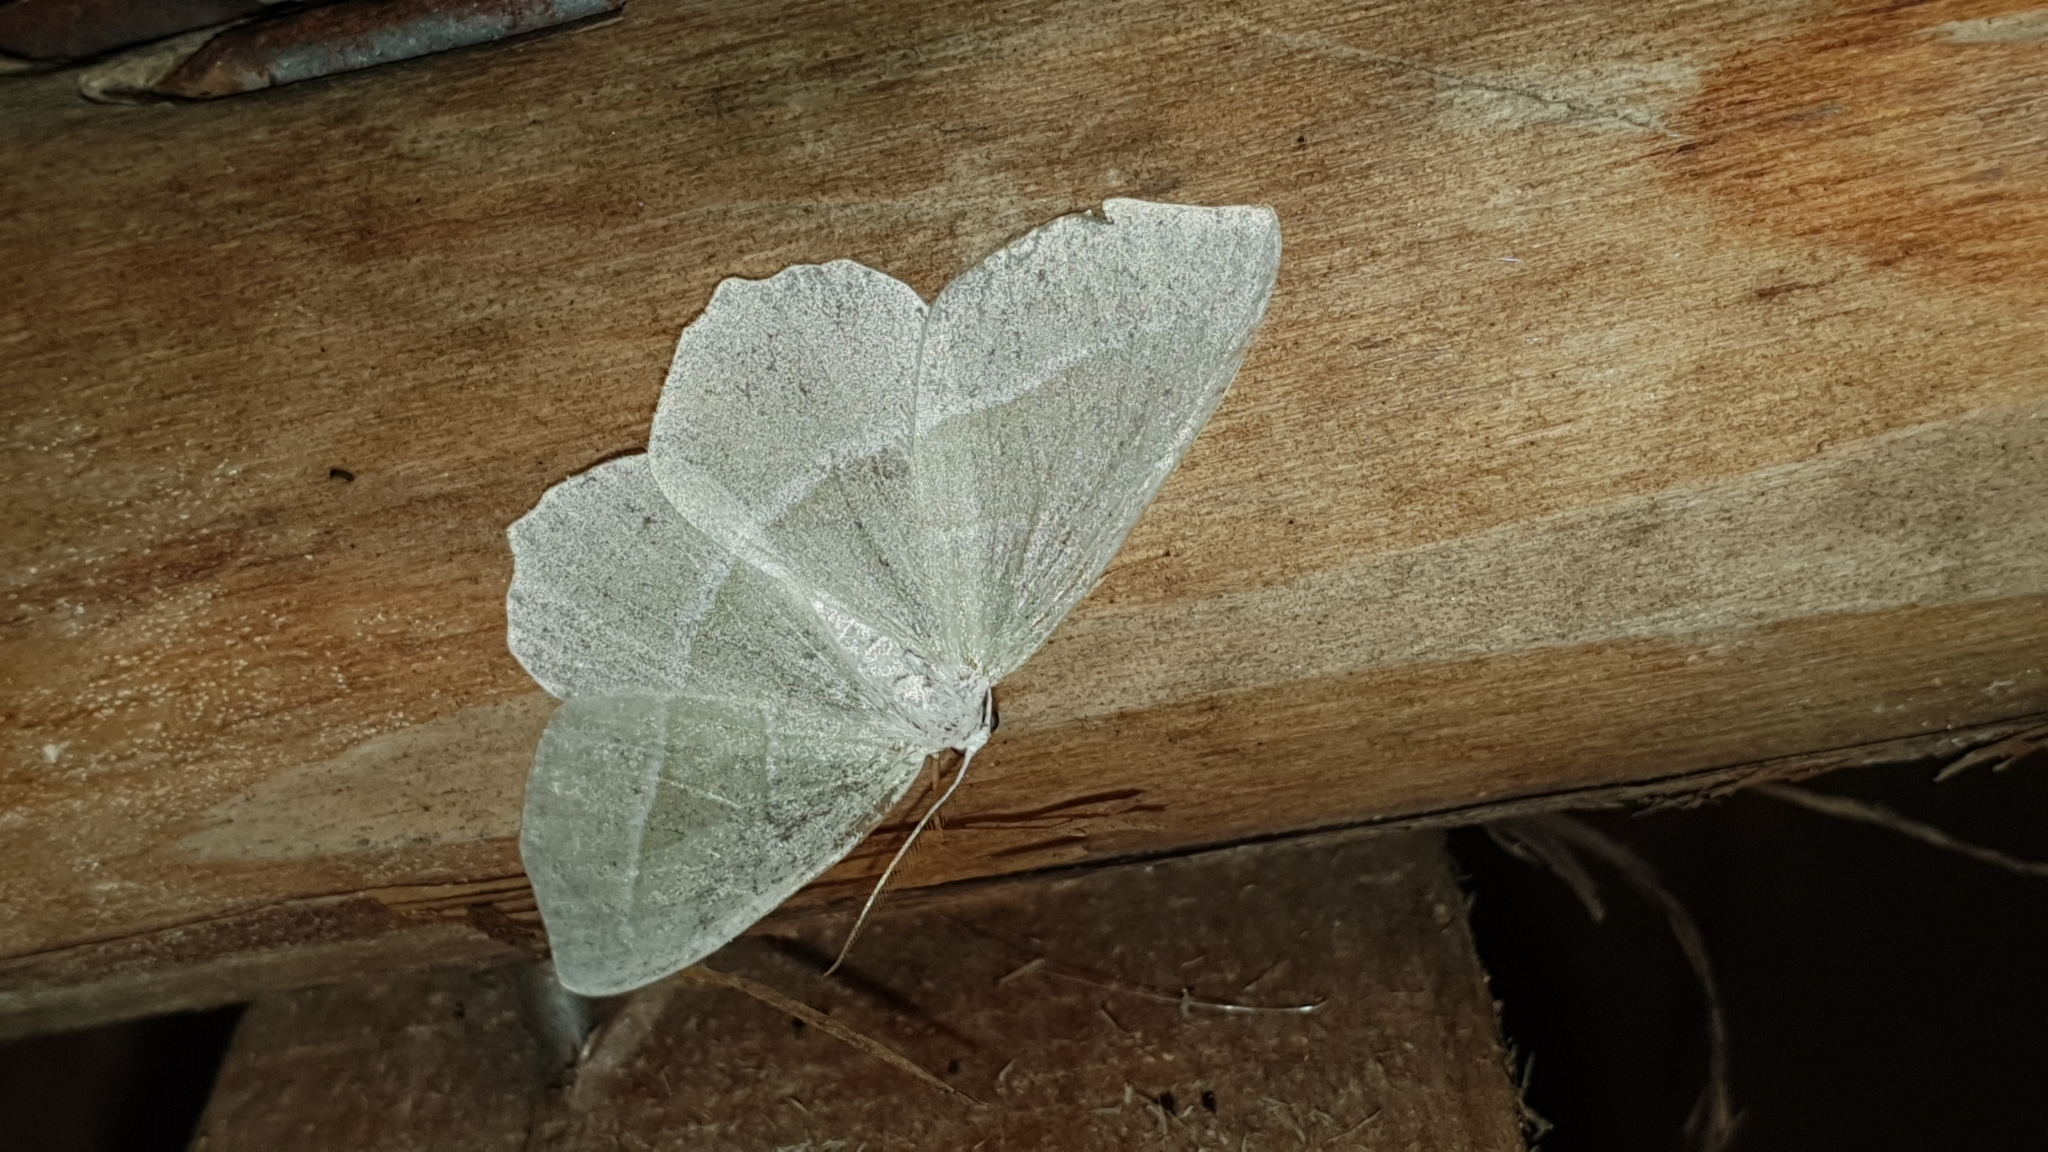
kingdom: Animalia
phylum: Arthropoda
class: Insecta
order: Lepidoptera
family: Geometridae
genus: Campaea
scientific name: Campaea margaritaria
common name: Light emerald
